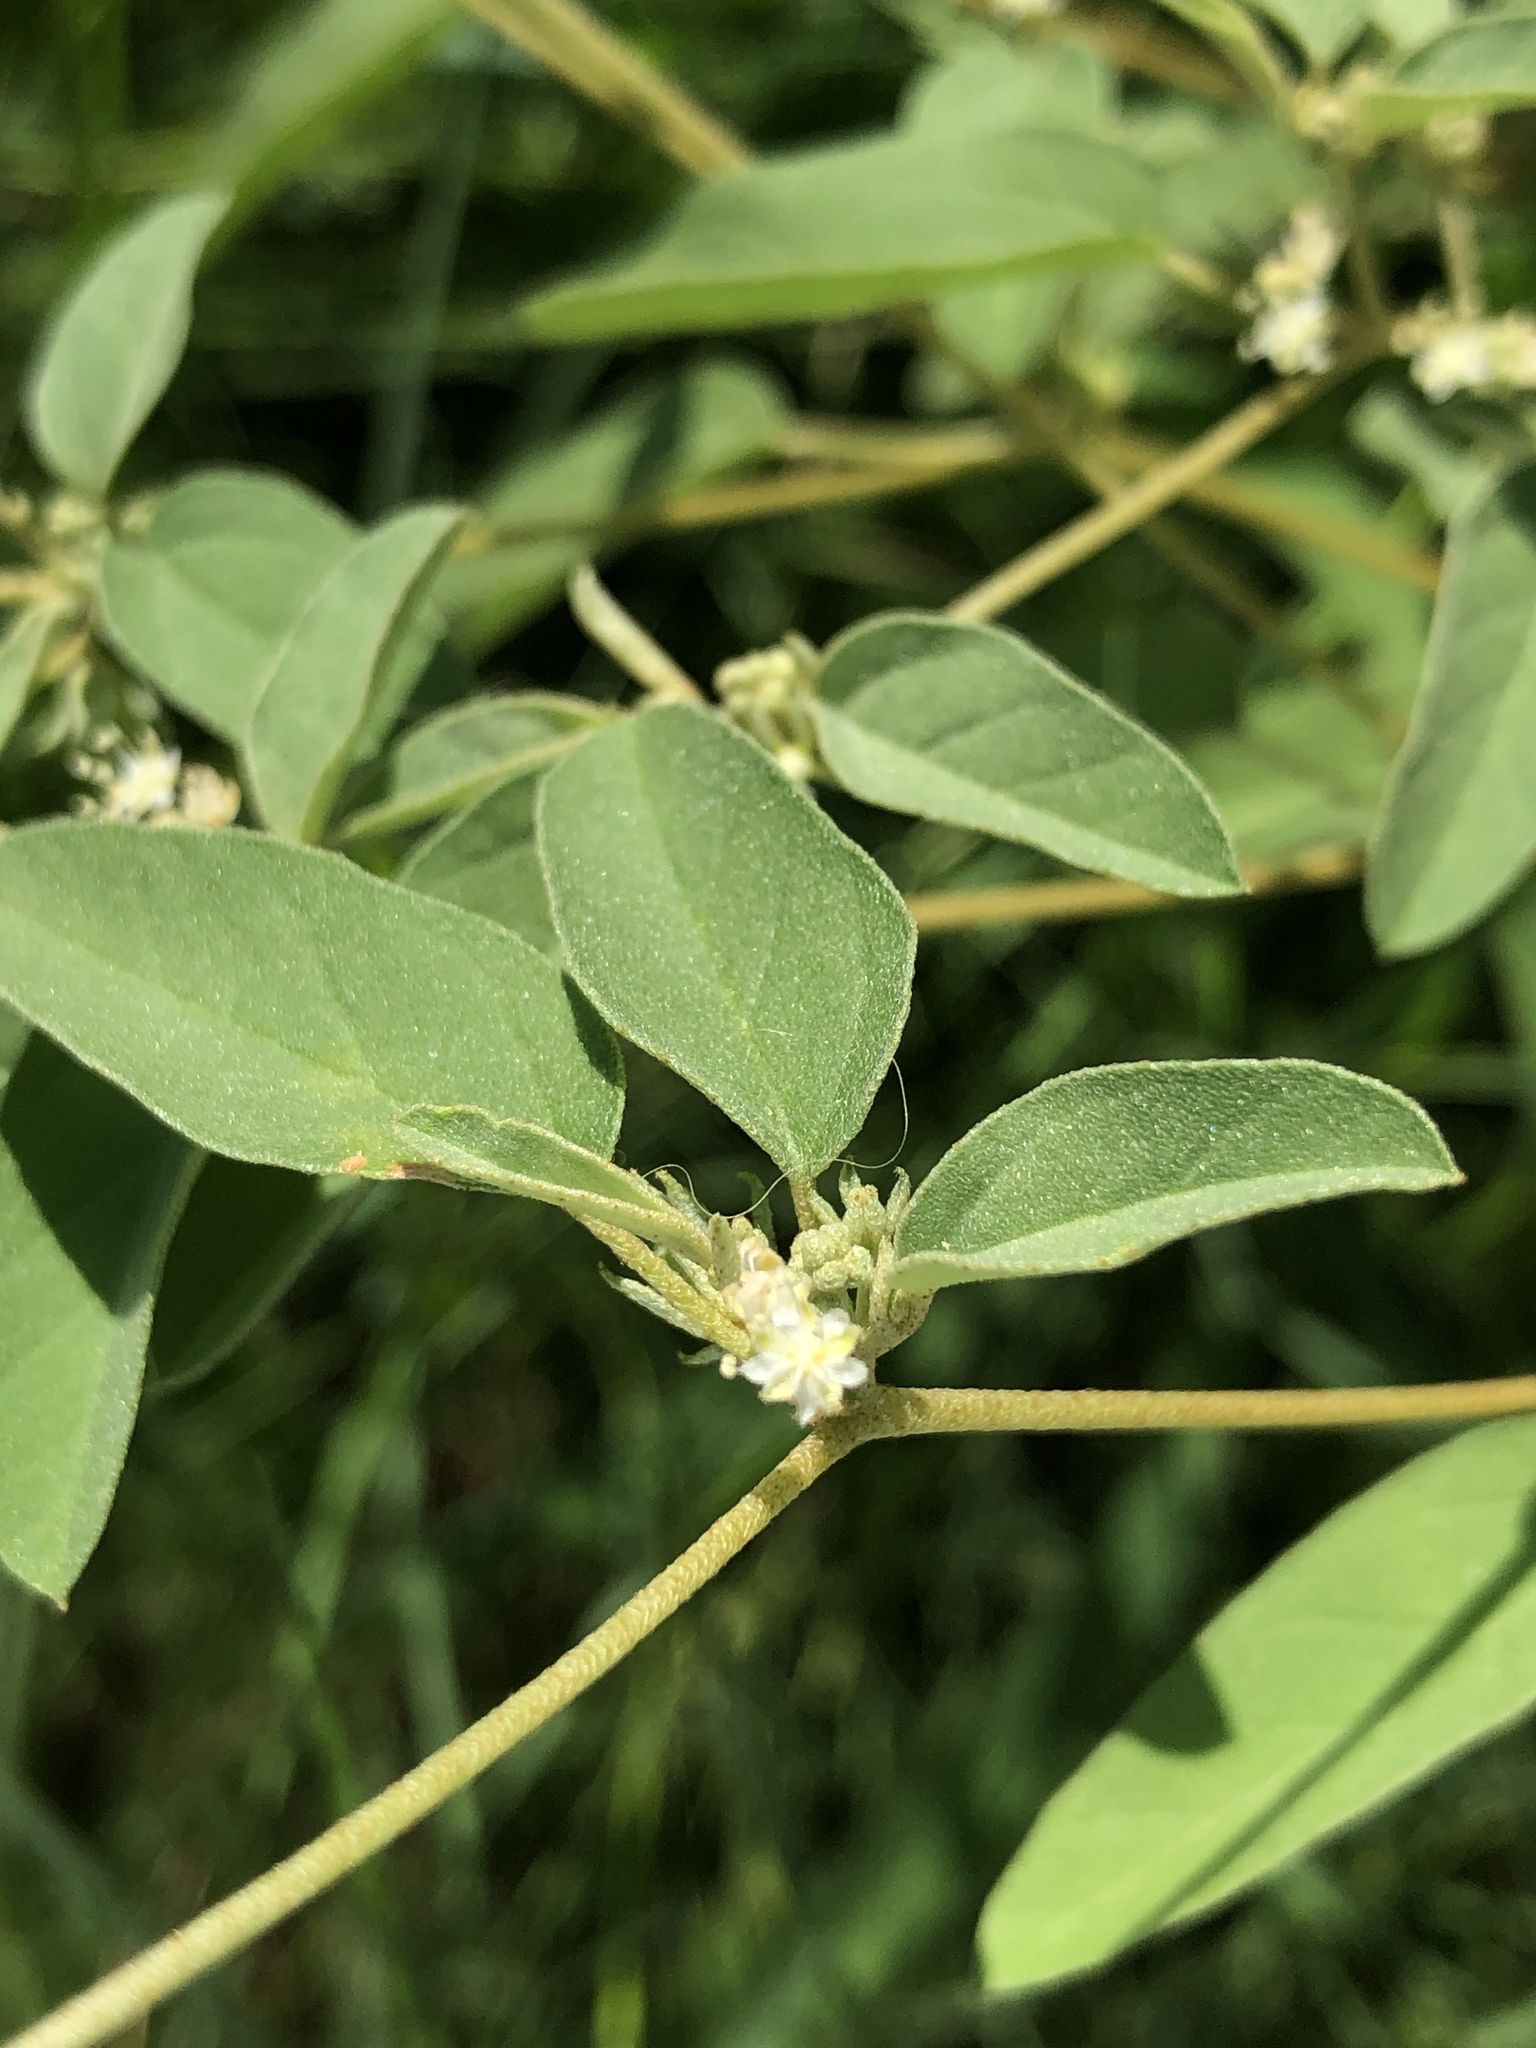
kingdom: Plantae
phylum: Tracheophyta
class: Magnoliopsida
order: Malpighiales
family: Euphorbiaceae
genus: Croton
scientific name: Croton monanthogynus
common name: One-seed croton
